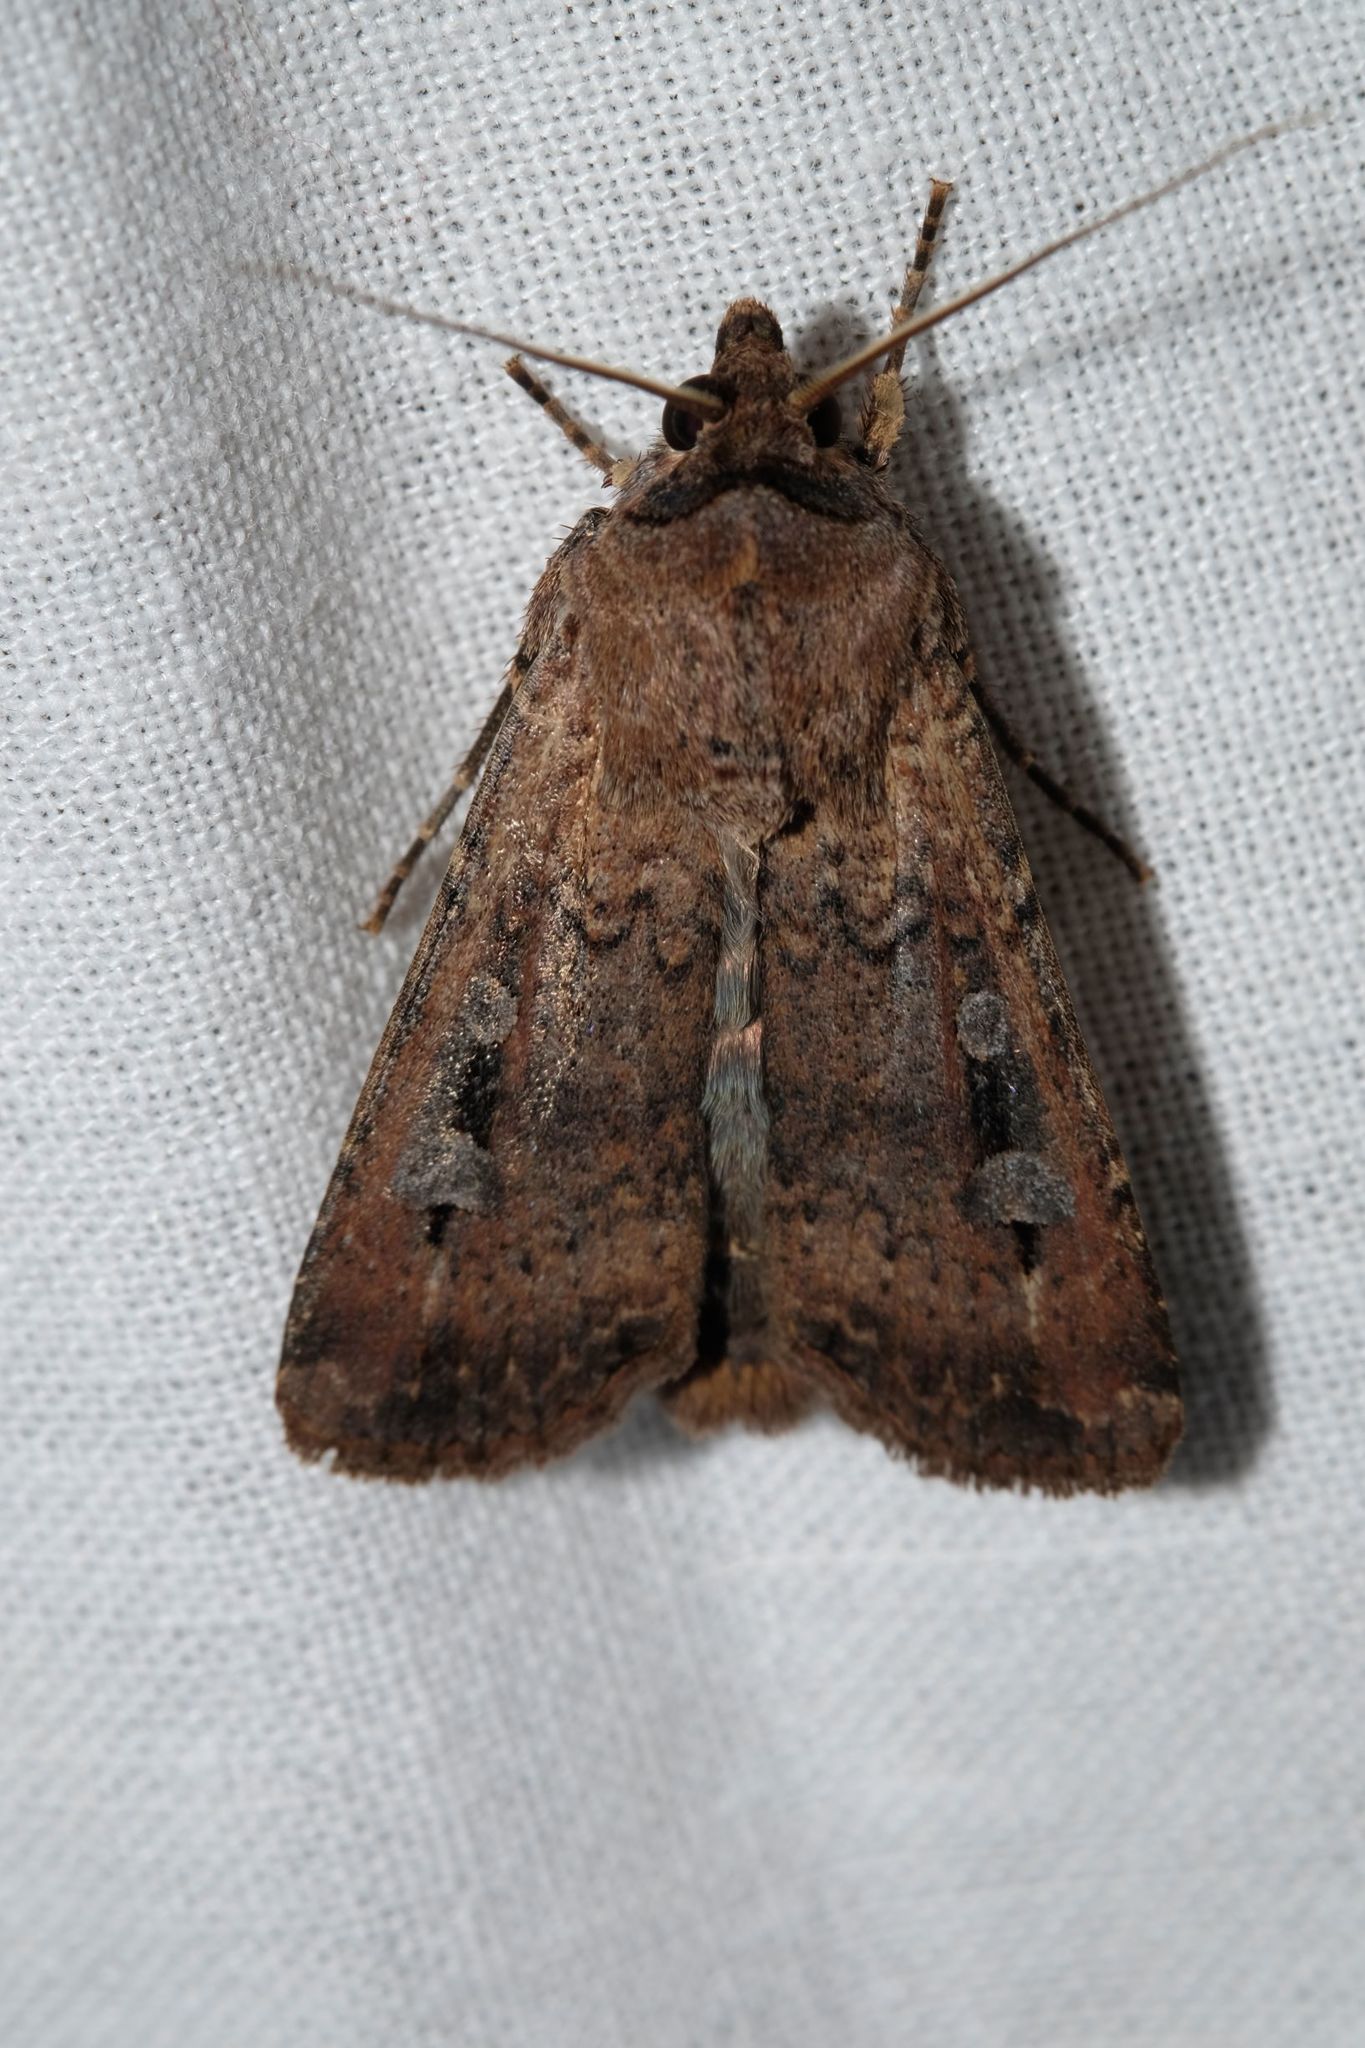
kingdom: Animalia
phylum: Arthropoda
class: Insecta
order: Lepidoptera
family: Noctuidae
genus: Agrotis
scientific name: Agrotis infusa
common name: Bogong moth
